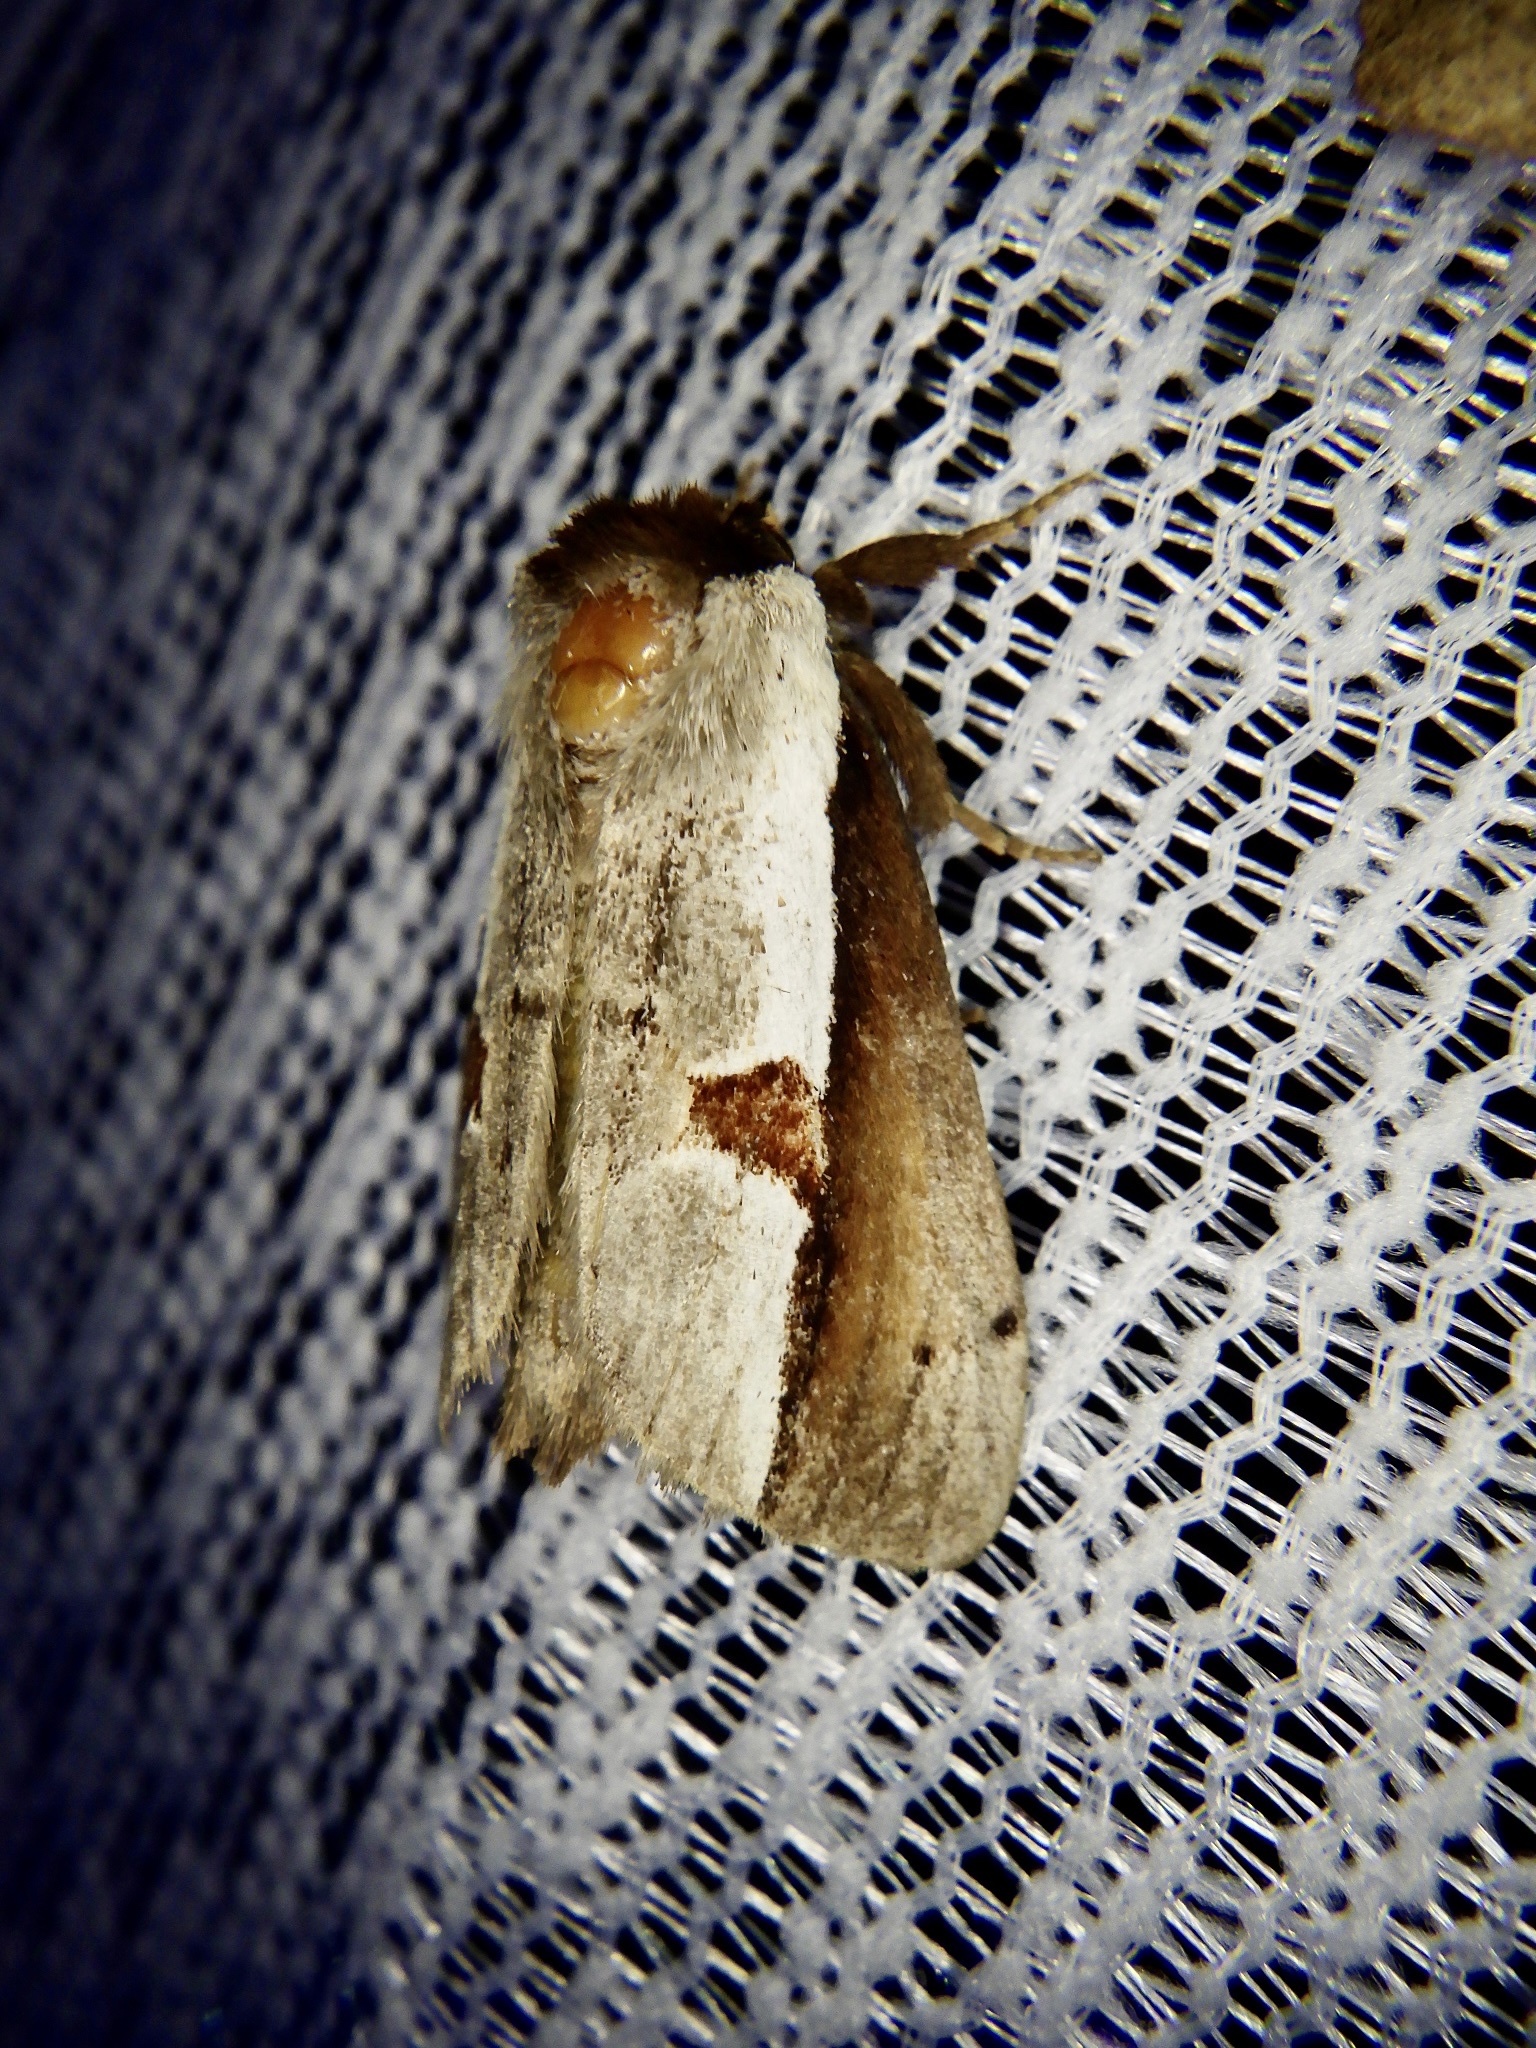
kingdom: Animalia
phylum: Arthropoda
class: Insecta
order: Lepidoptera
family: Notodontidae
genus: Nerice
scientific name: Nerice bipartita
